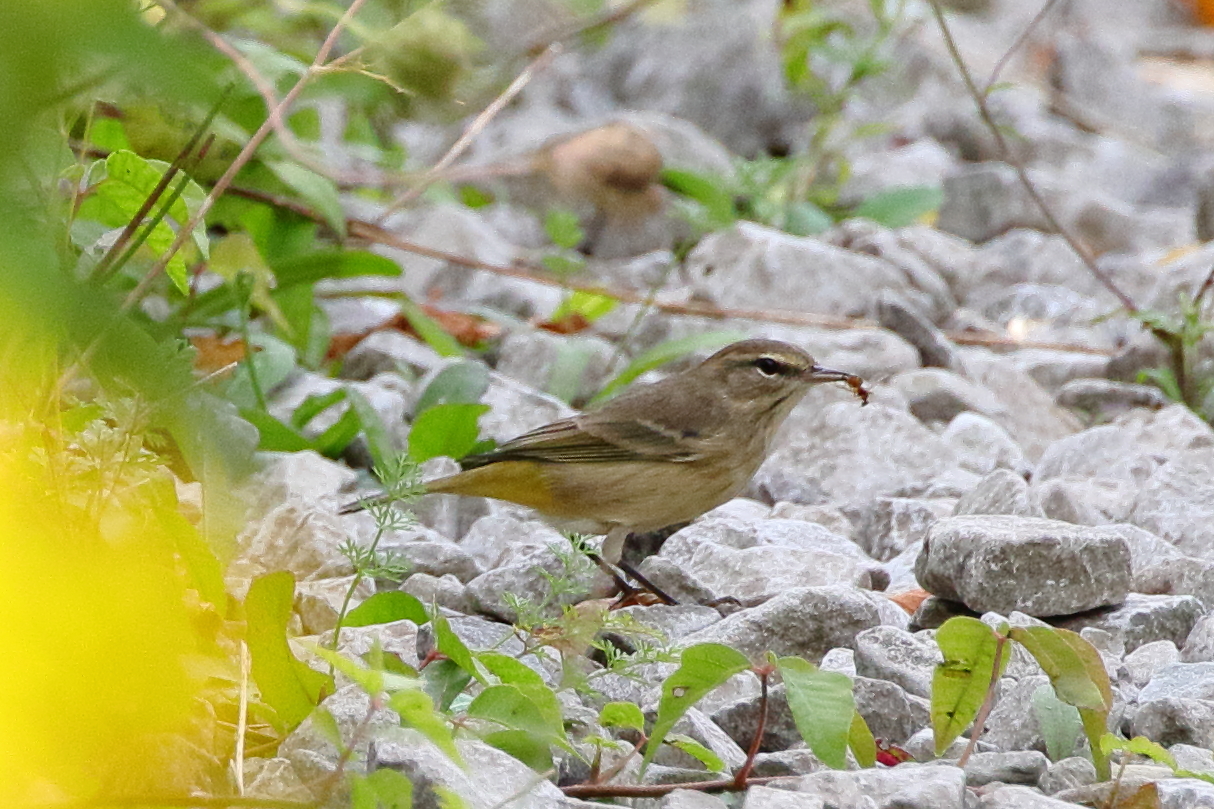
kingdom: Animalia
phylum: Chordata
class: Aves
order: Passeriformes
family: Parulidae
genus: Setophaga
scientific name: Setophaga palmarum
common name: Palm warbler
